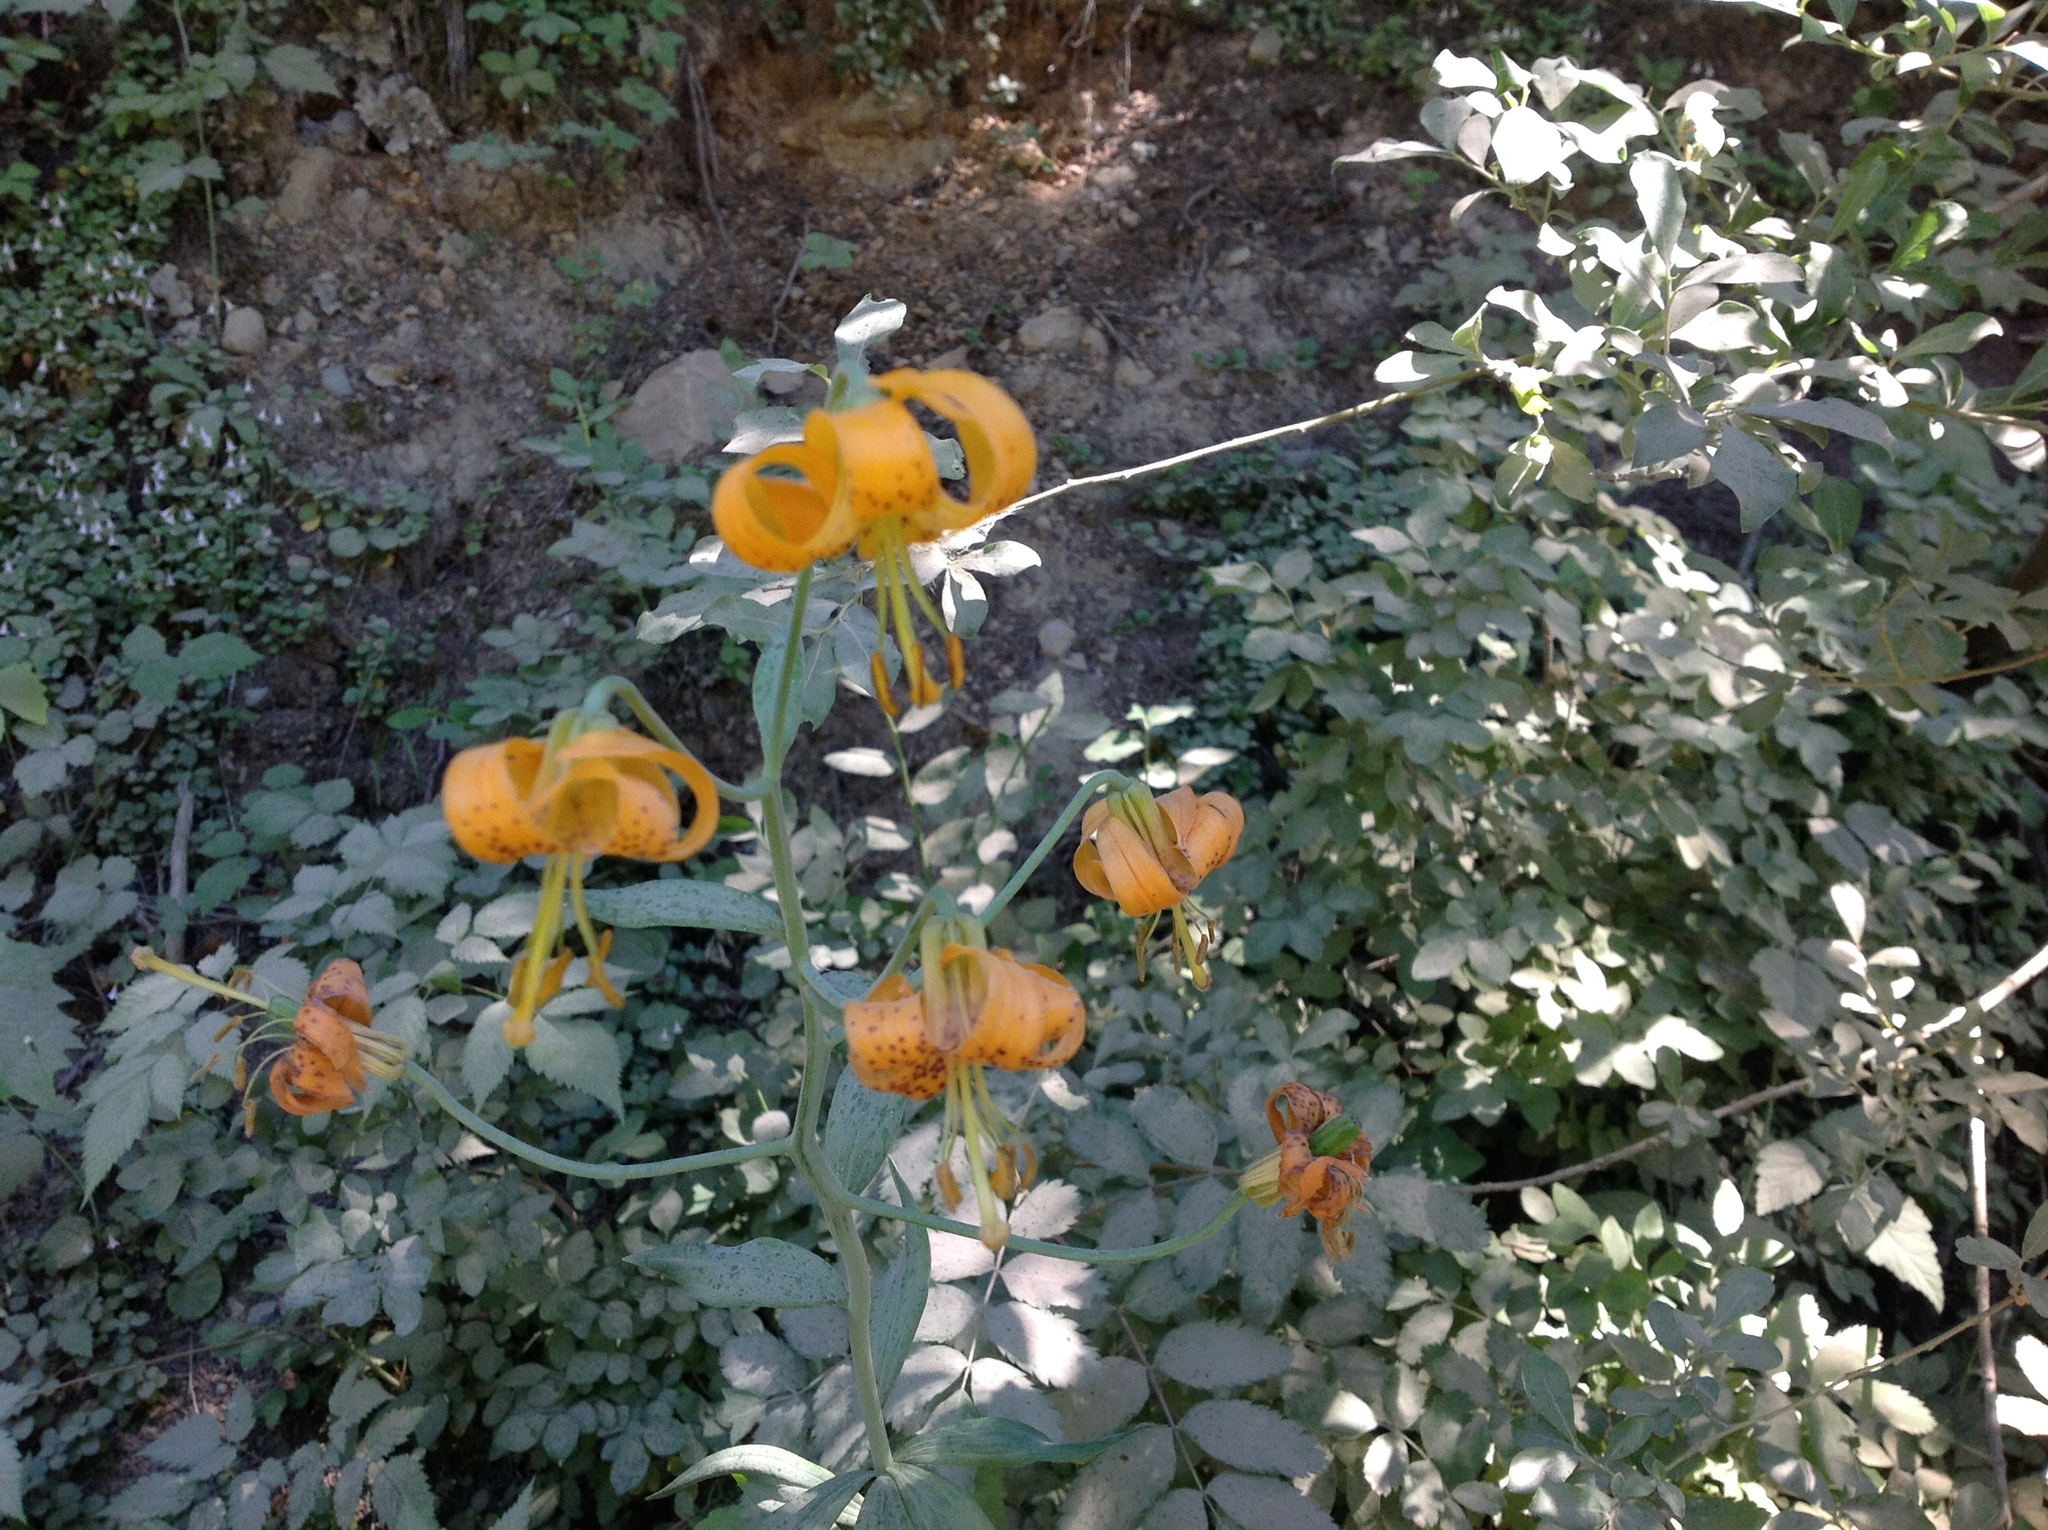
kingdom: Plantae
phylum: Tracheophyta
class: Liliopsida
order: Liliales
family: Liliaceae
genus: Lilium
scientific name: Lilium columbianum
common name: Columbia lily
